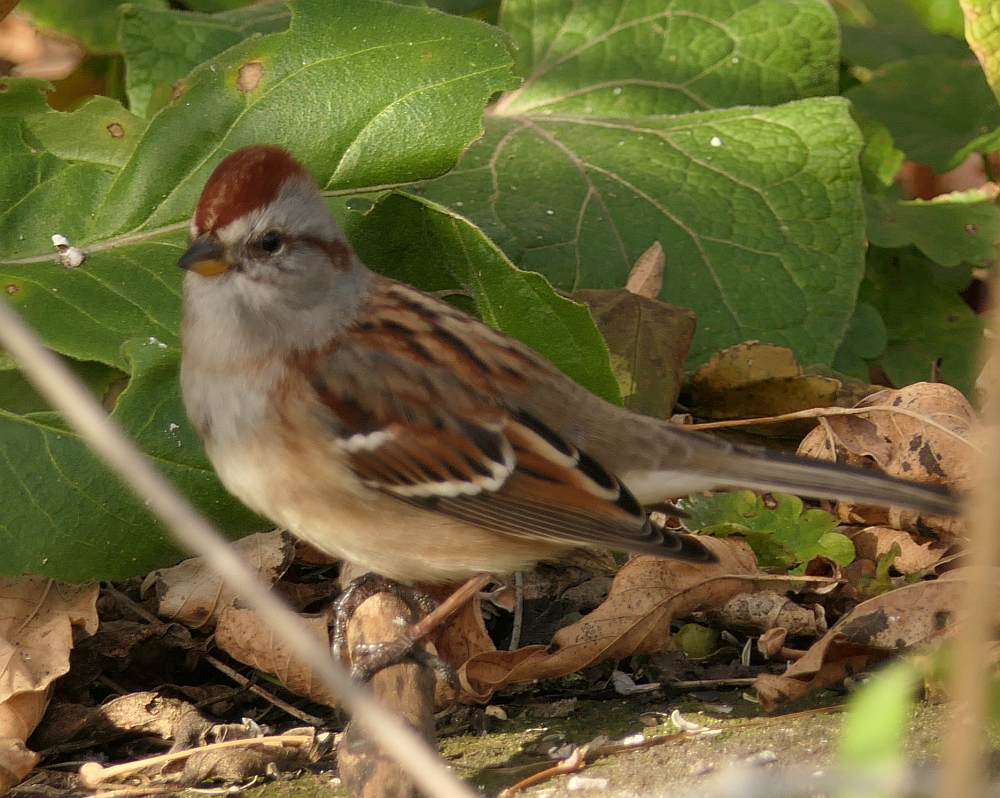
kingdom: Animalia
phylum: Chordata
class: Aves
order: Passeriformes
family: Passerellidae
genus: Spizelloides
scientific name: Spizelloides arborea
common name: American tree sparrow
